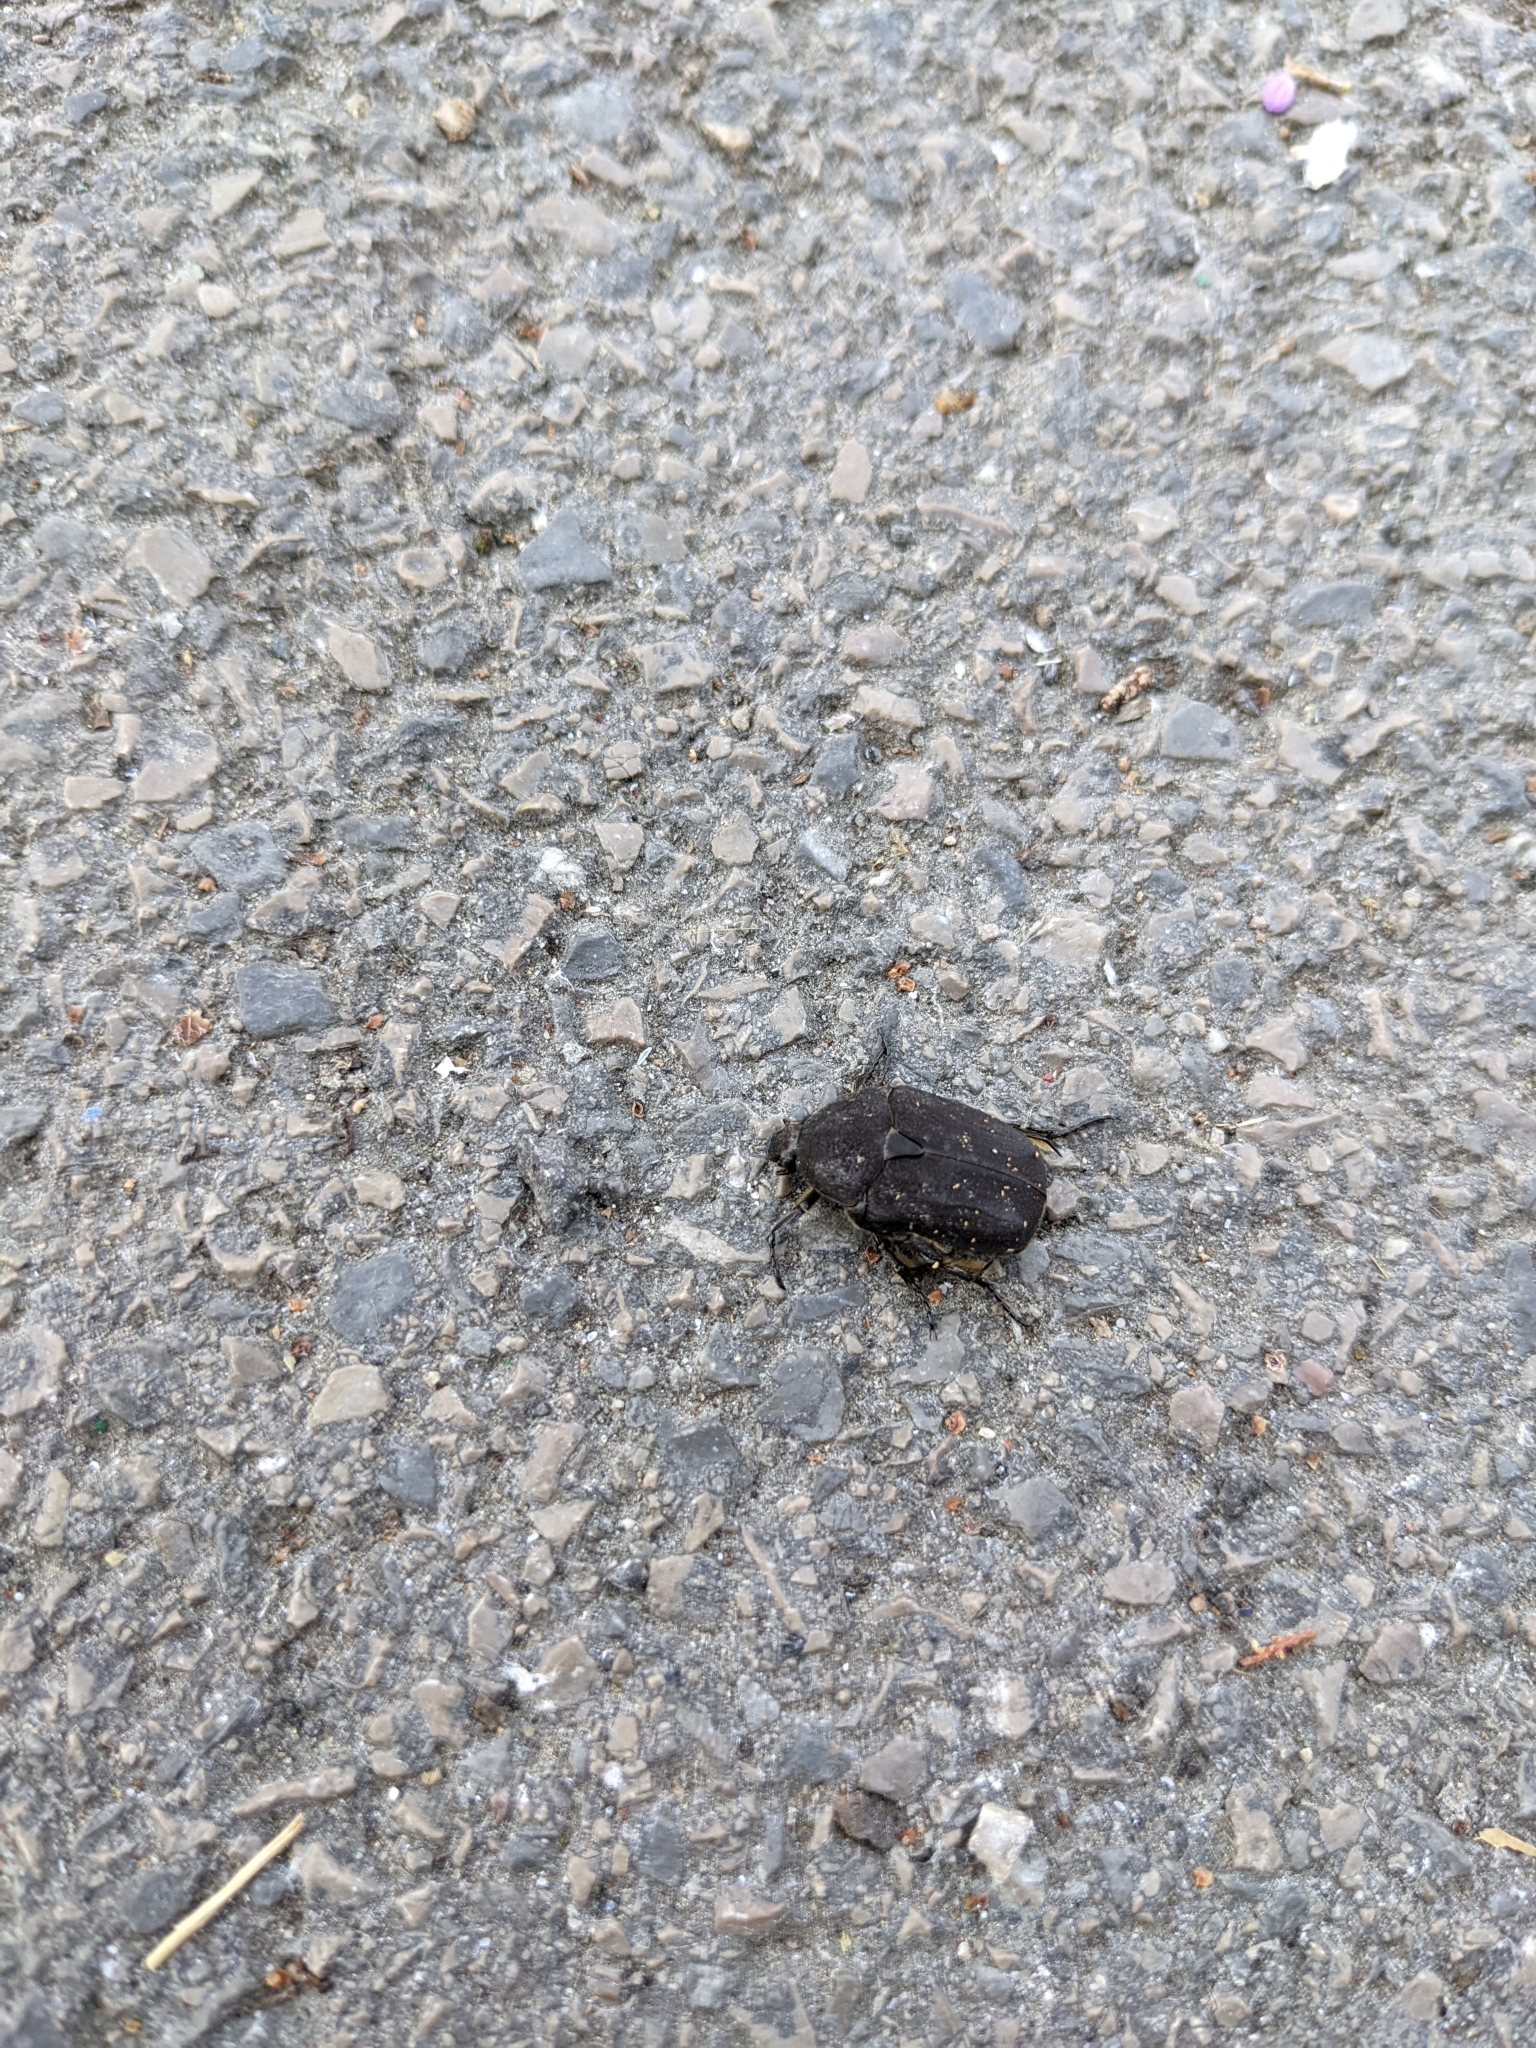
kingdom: Animalia
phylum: Arthropoda
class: Insecta
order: Coleoptera
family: Scarabaeidae
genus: Protaetia
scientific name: Protaetia morio
